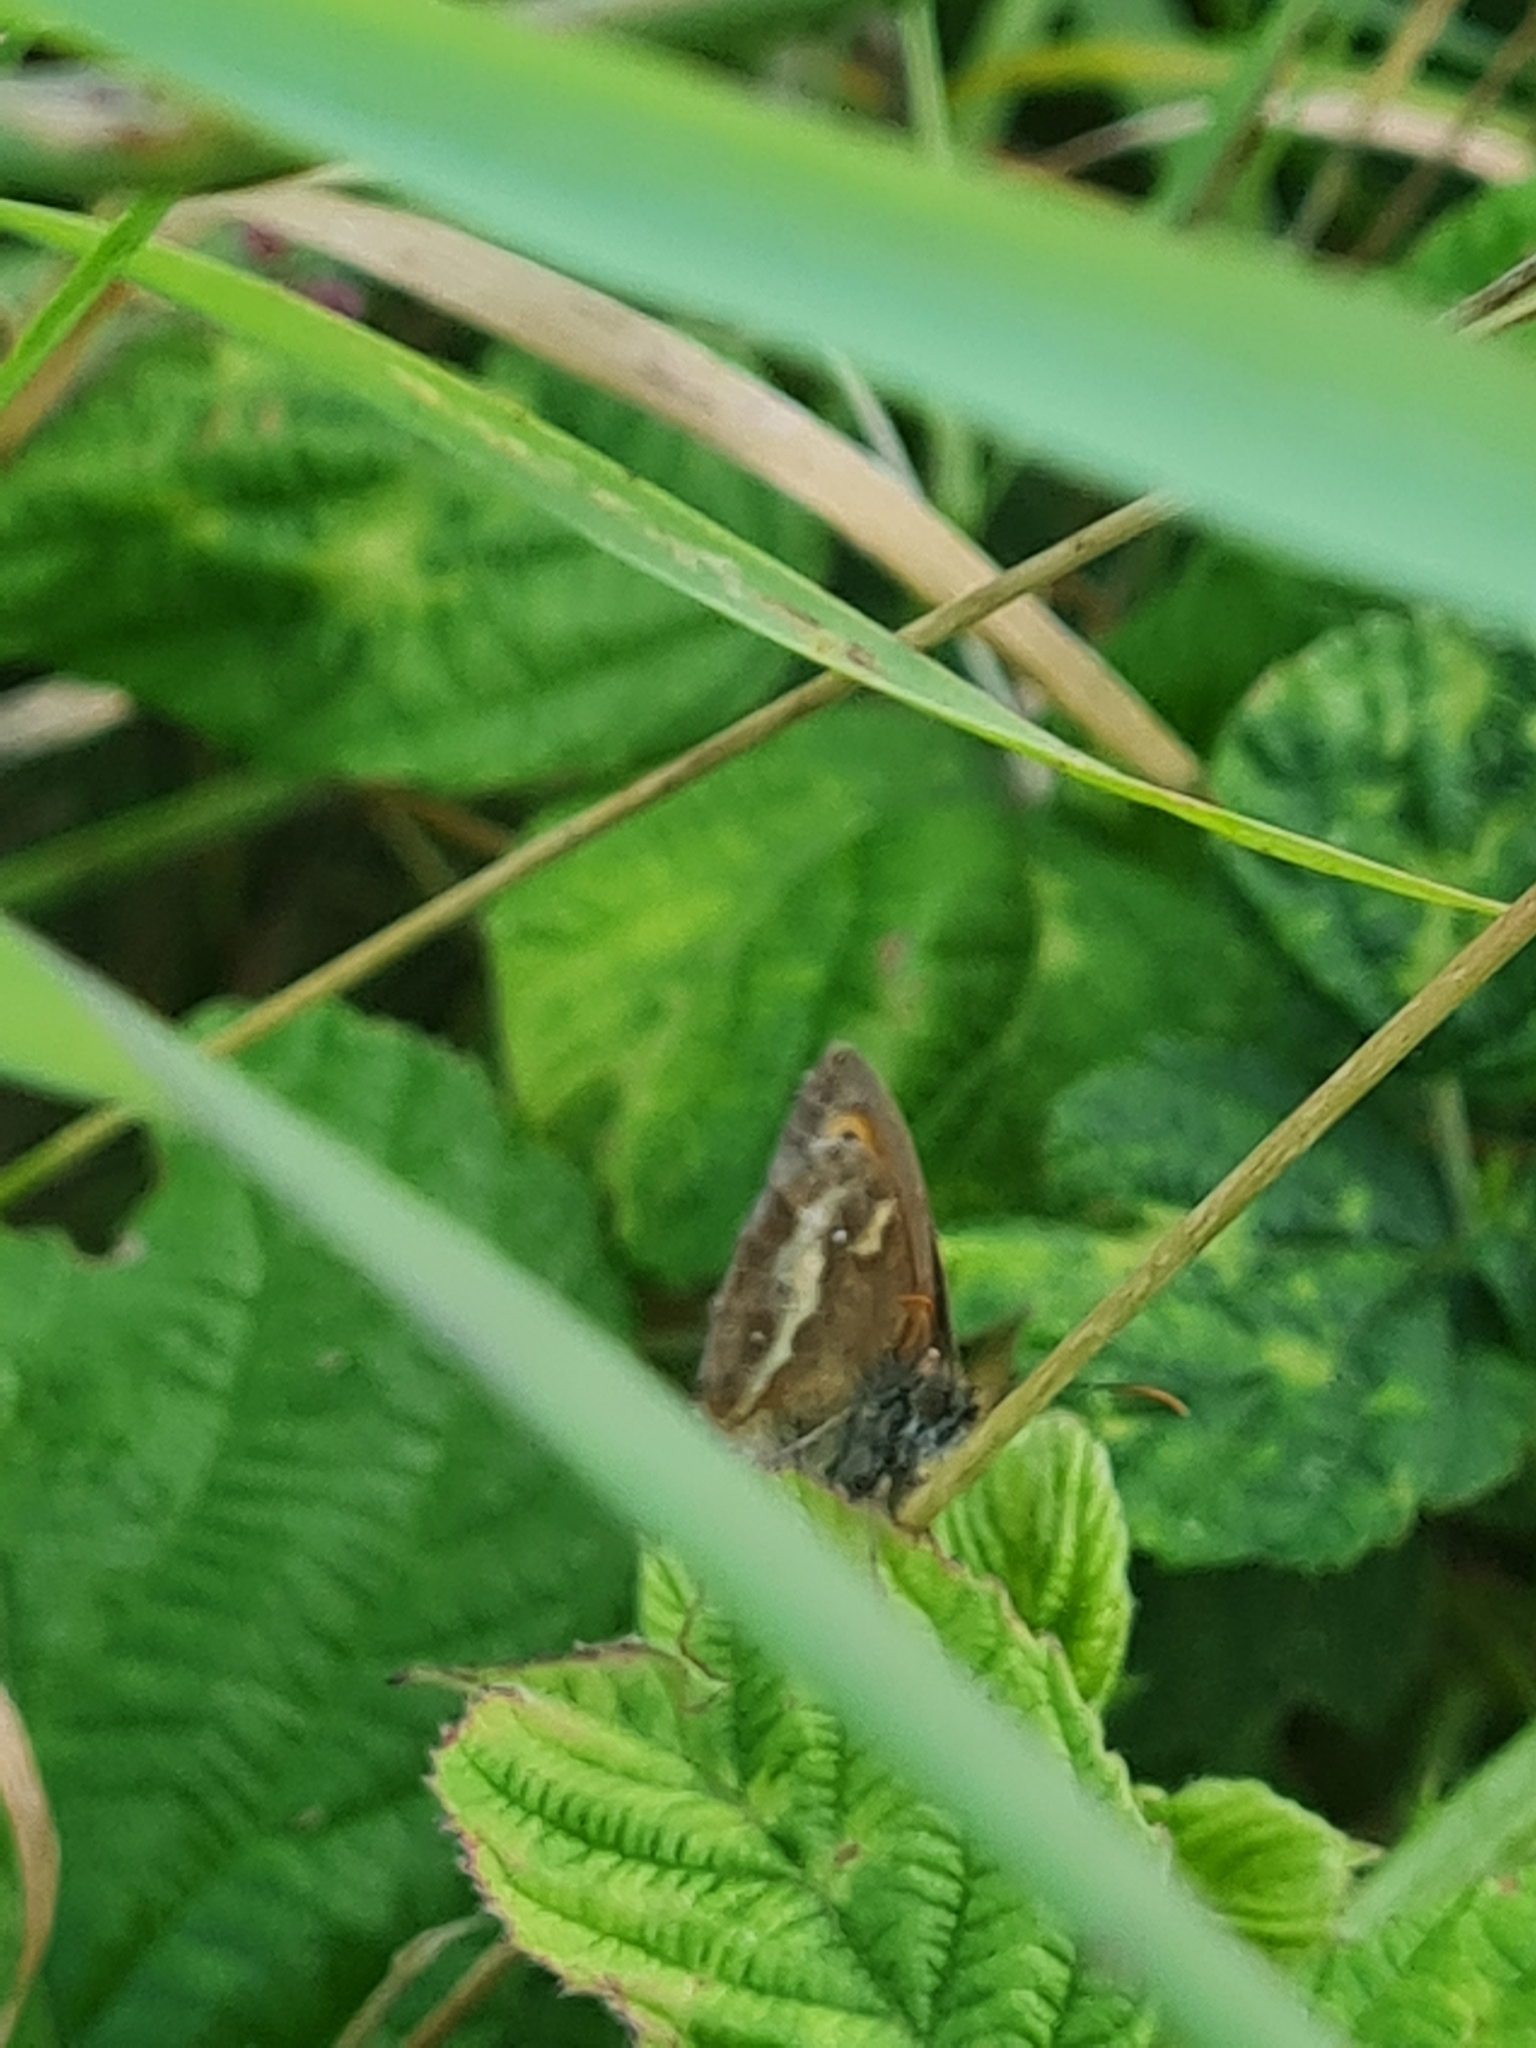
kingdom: Animalia
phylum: Arthropoda
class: Insecta
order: Lepidoptera
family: Nymphalidae
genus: Pyronia
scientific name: Pyronia tithonus
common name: Gatekeeper
